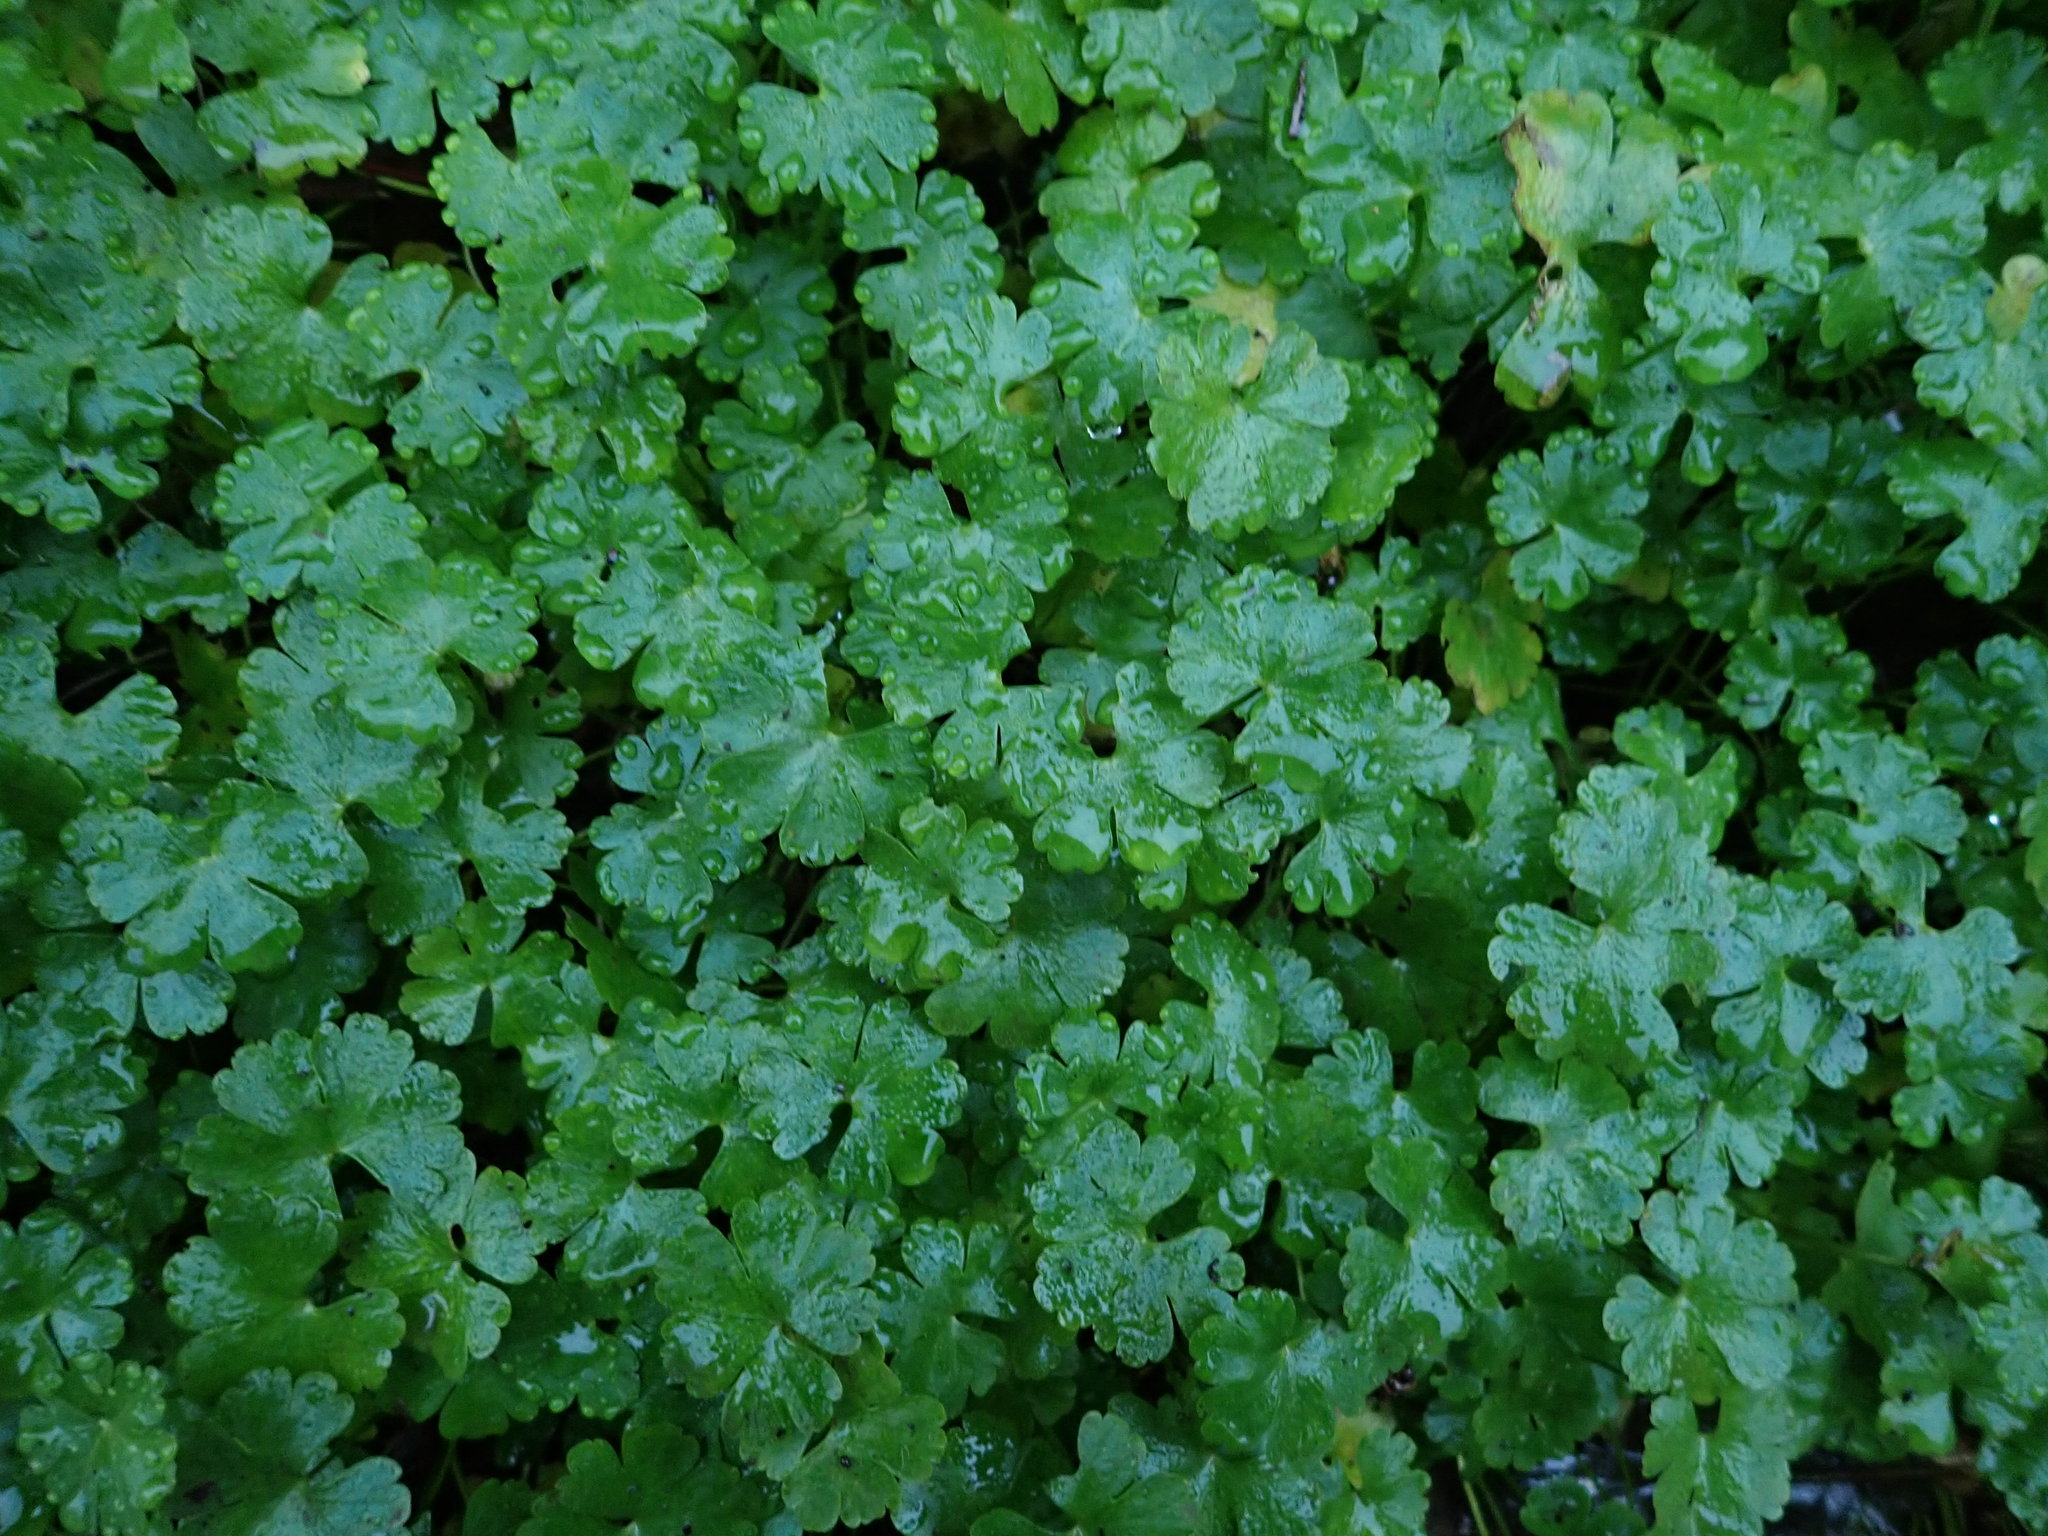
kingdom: Plantae
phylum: Tracheophyta
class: Magnoliopsida
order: Geraniales
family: Geraniaceae
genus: Geranium
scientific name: Geranium lucidum
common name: Shining crane's-bill
